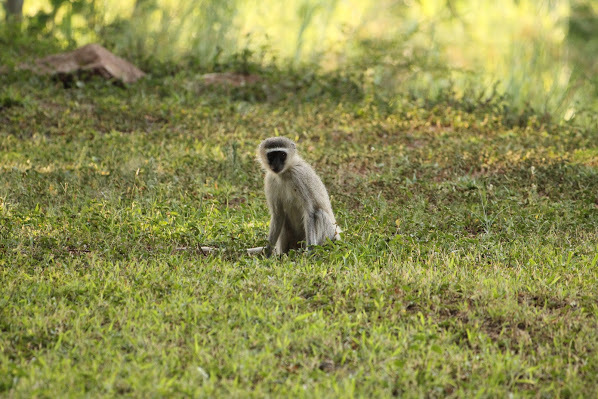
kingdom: Animalia
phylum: Chordata
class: Mammalia
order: Primates
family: Cercopithecidae
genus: Chlorocebus
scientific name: Chlorocebus pygerythrus
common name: Vervet monkey
